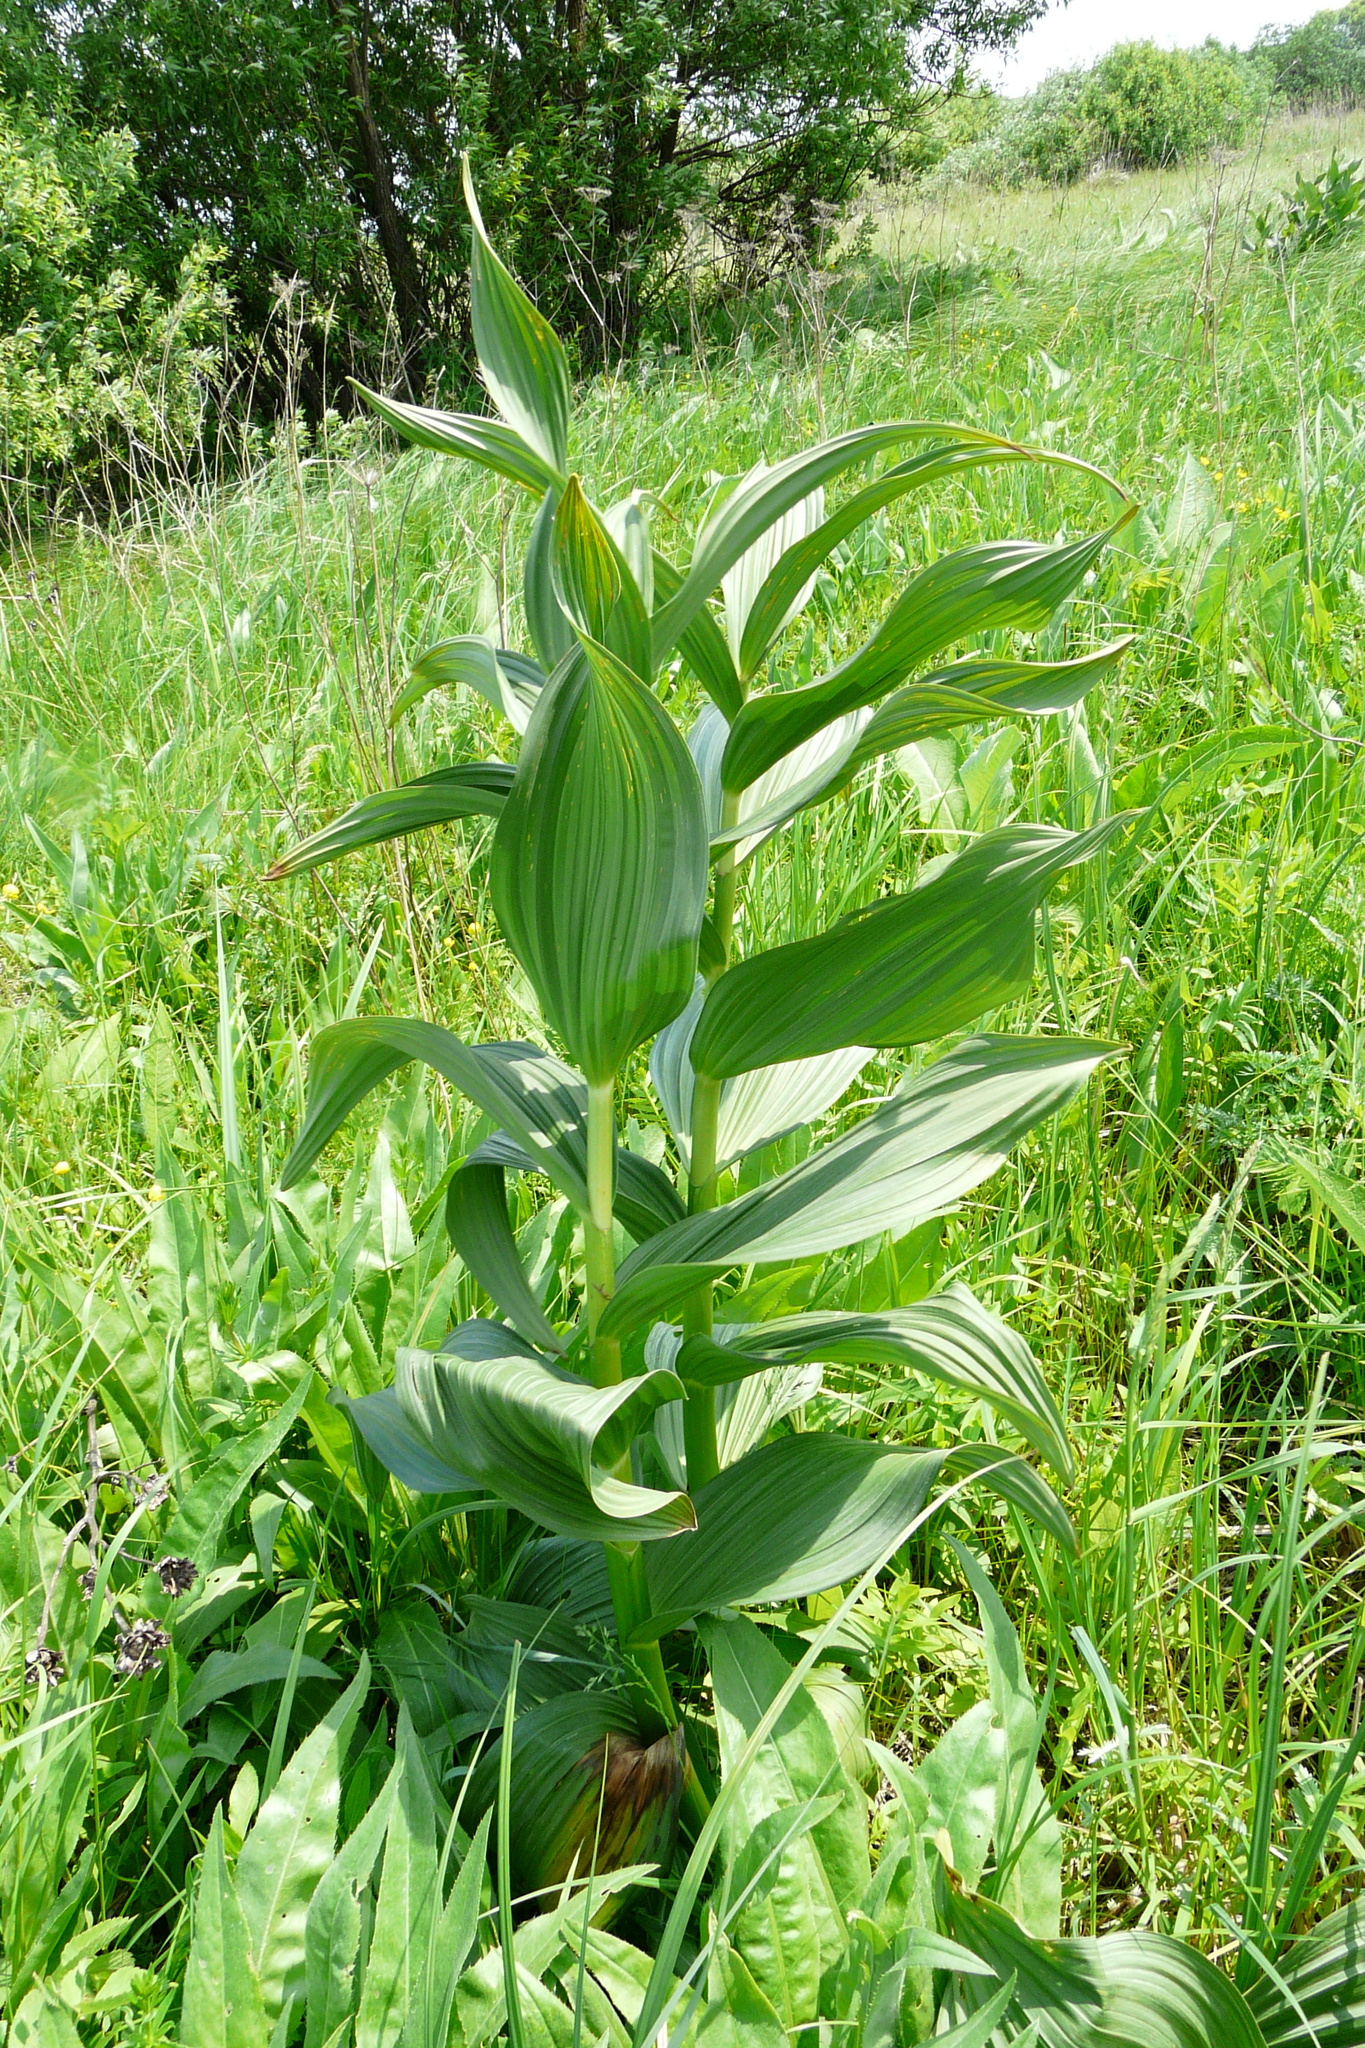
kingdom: Plantae
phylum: Tracheophyta
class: Liliopsida
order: Liliales
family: Melanthiaceae
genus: Veratrum
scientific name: Veratrum lobelianum
